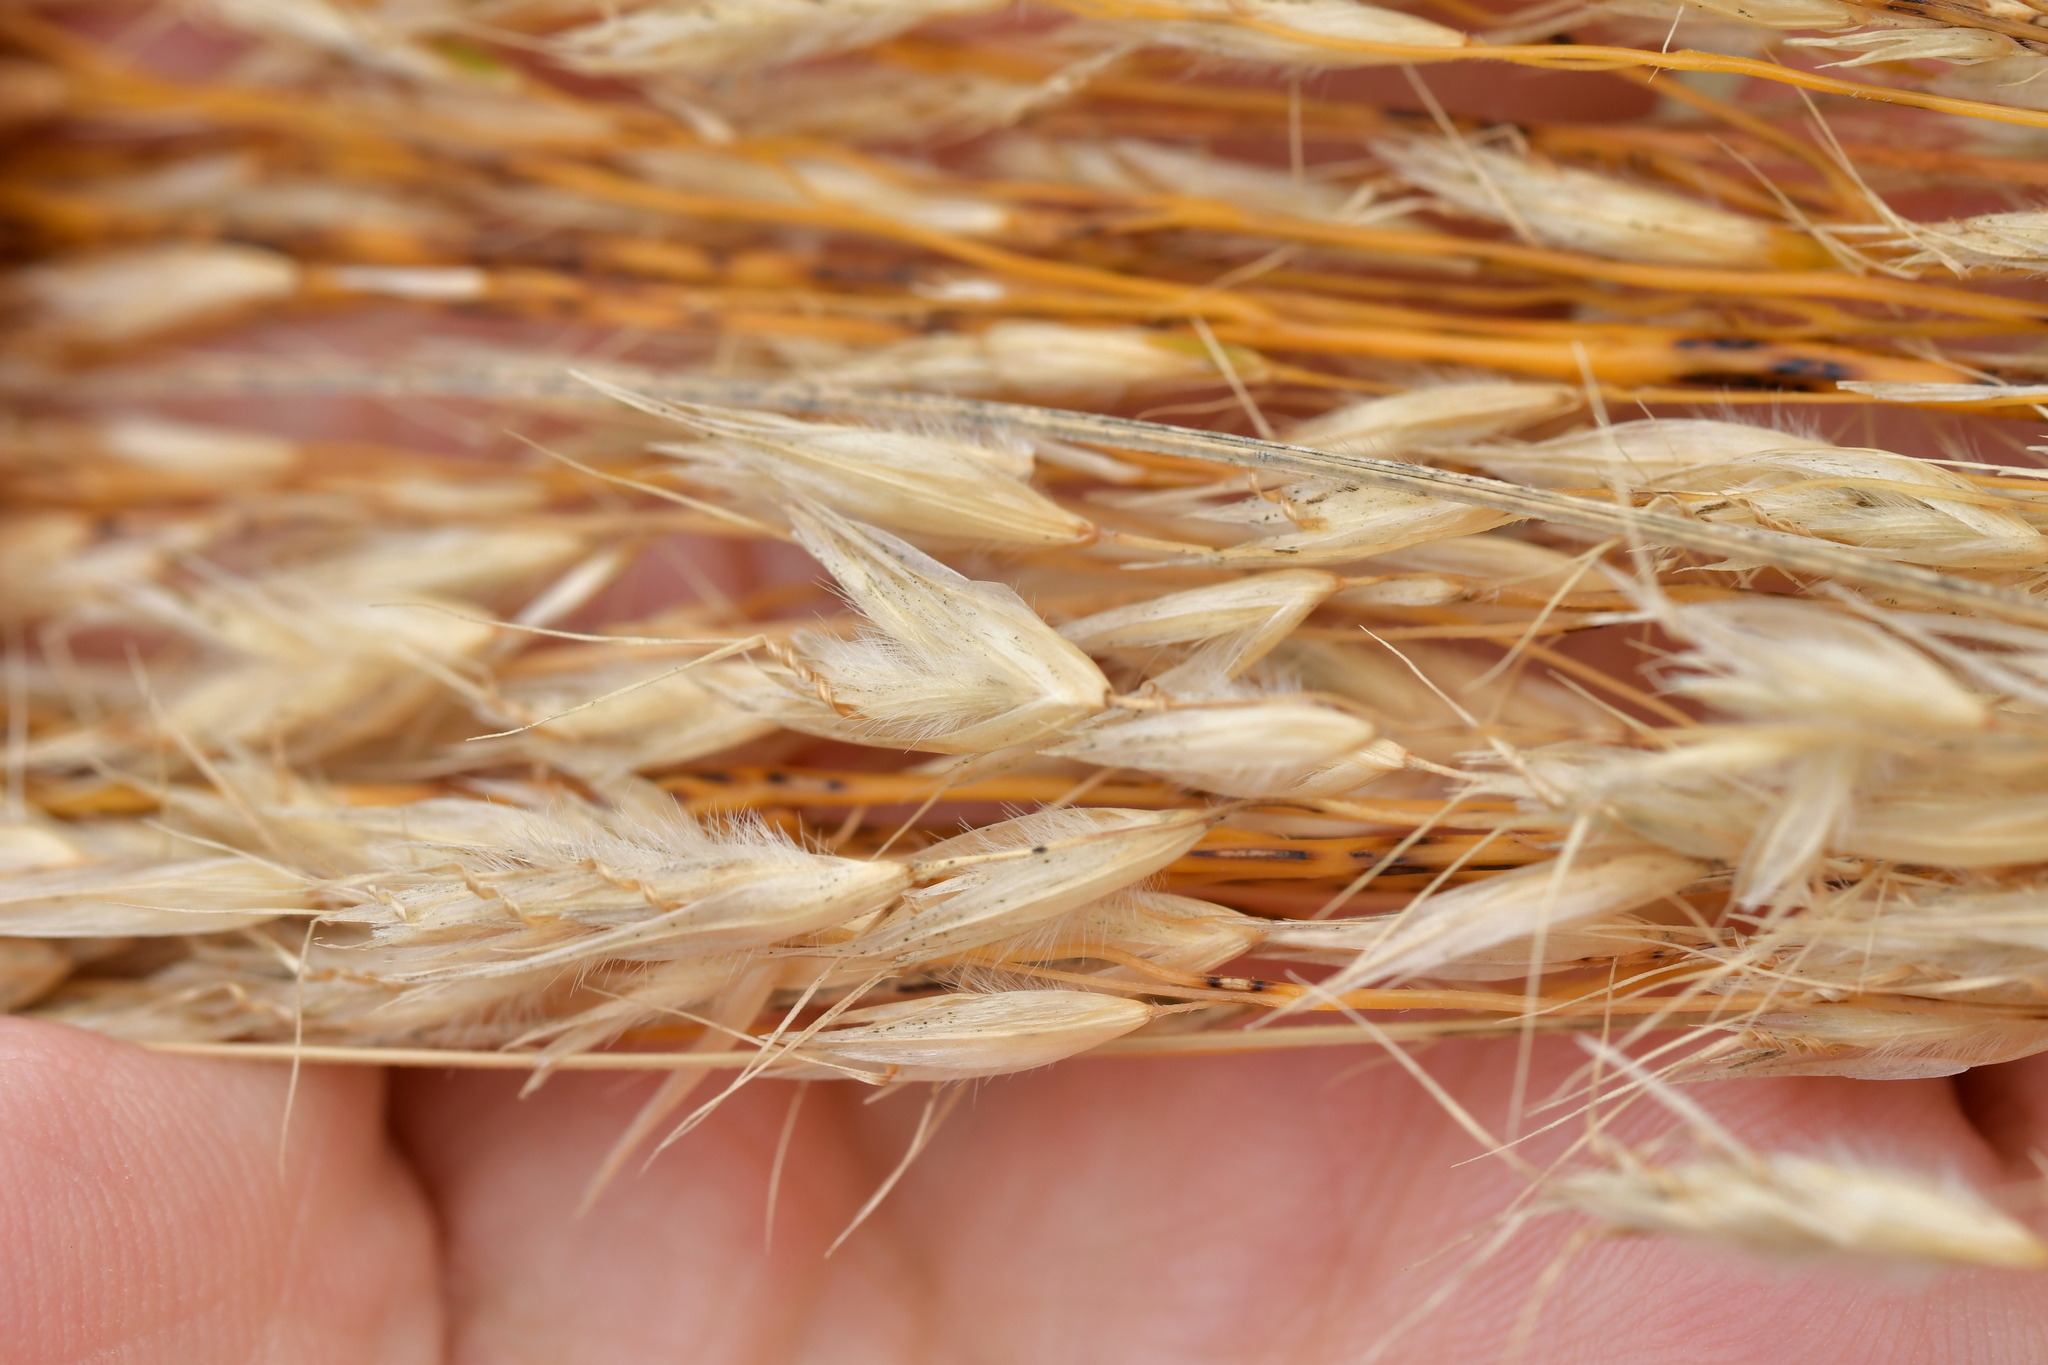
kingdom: Plantae
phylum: Tracheophyta
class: Liliopsida
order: Poales
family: Poaceae
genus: Chionochloa
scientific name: Chionochloa rigida
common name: Narrow leaved snow tussock
